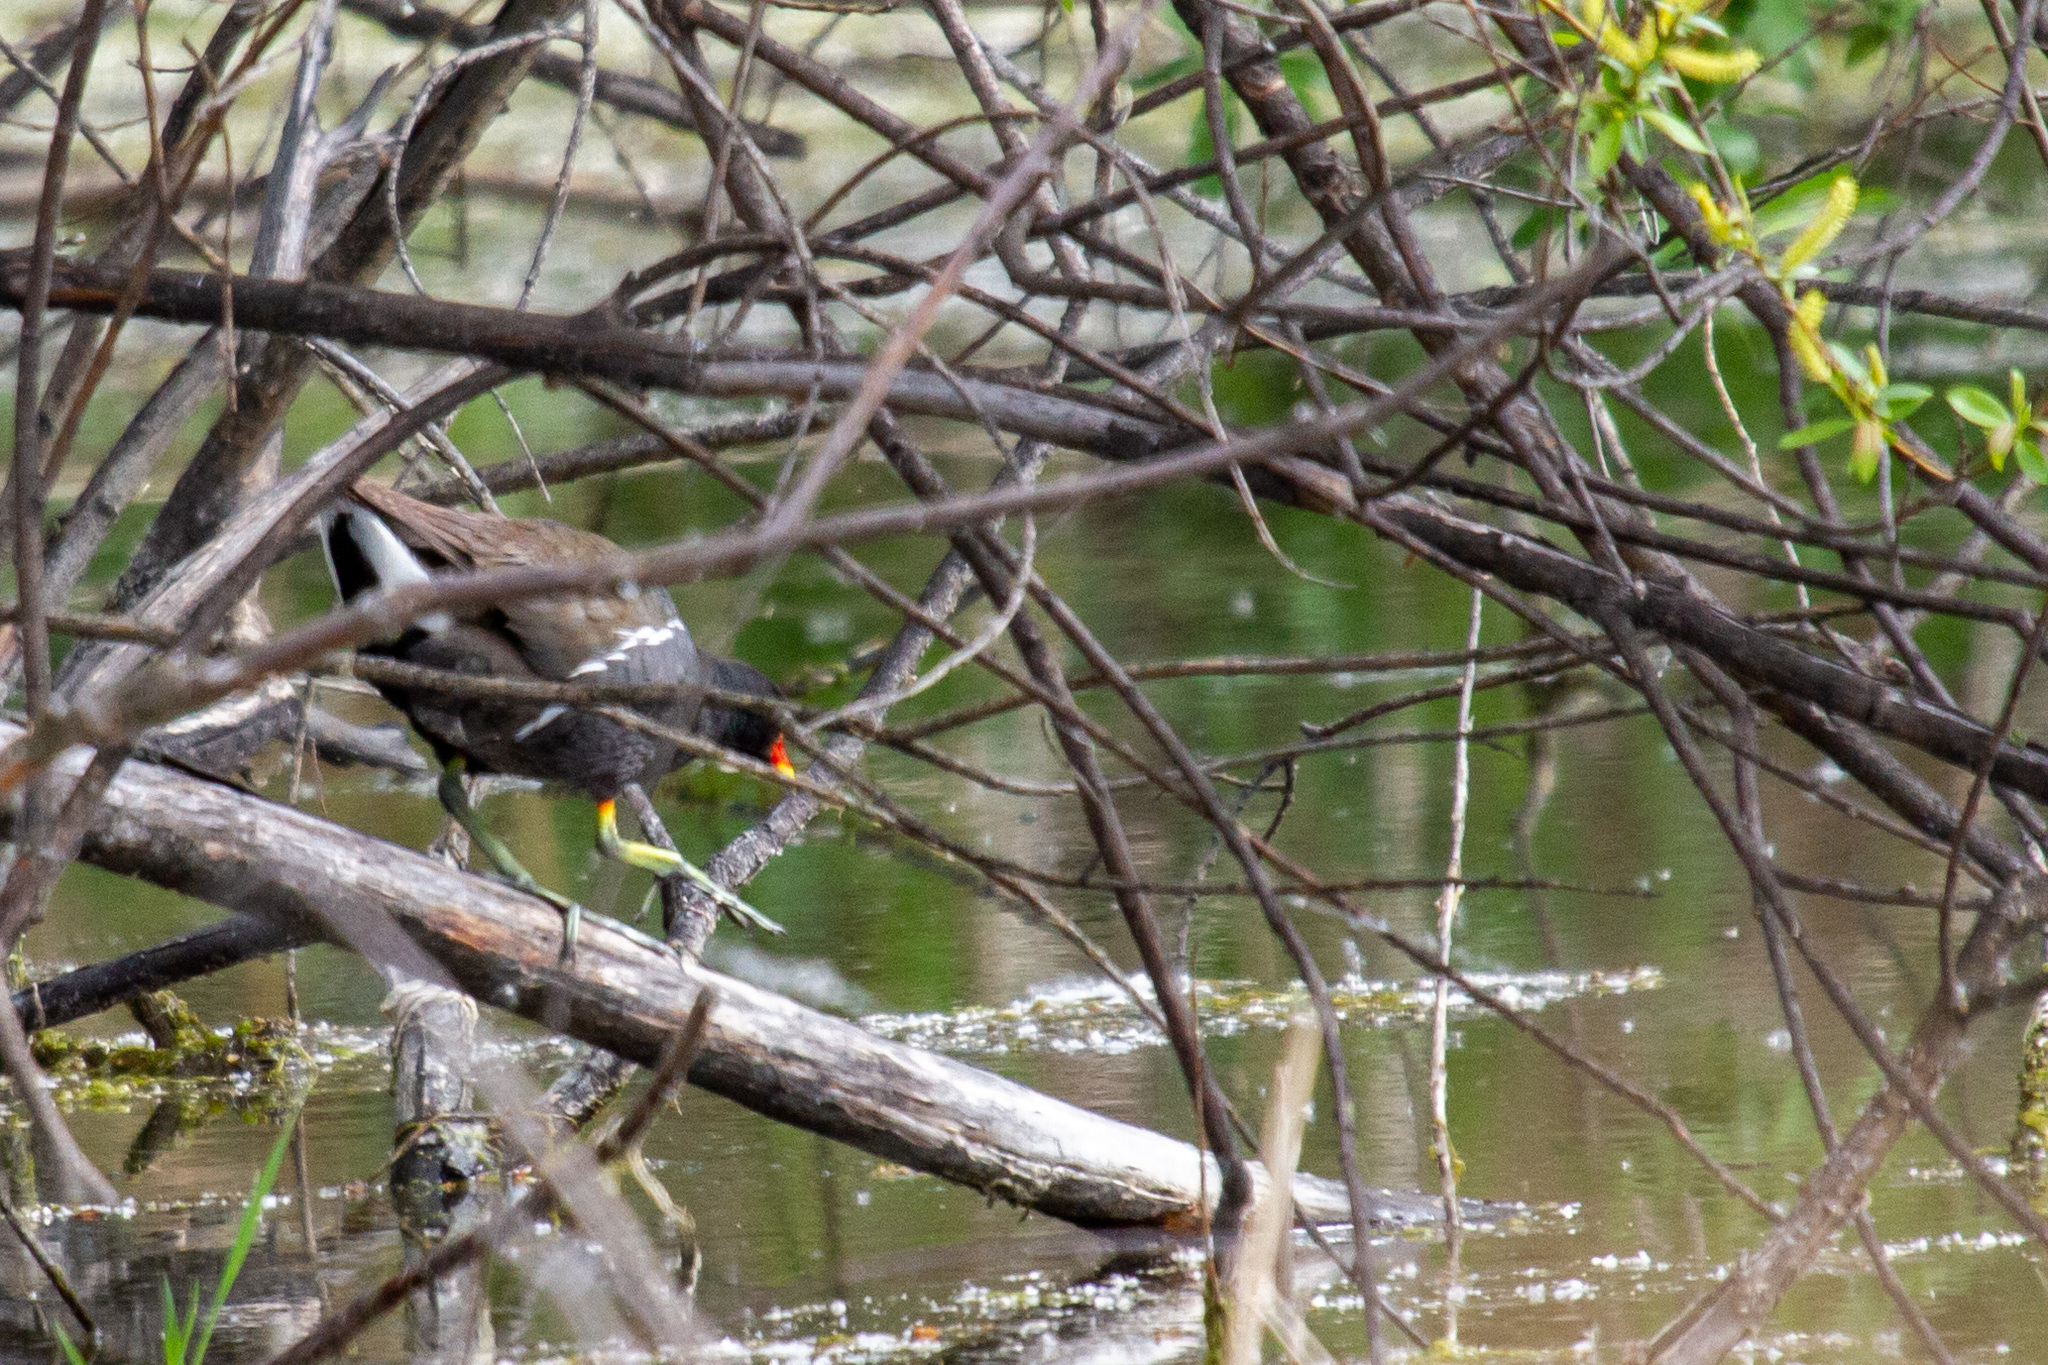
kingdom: Animalia
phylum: Chordata
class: Aves
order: Gruiformes
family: Rallidae
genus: Gallinula
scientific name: Gallinula chloropus
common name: Common moorhen
